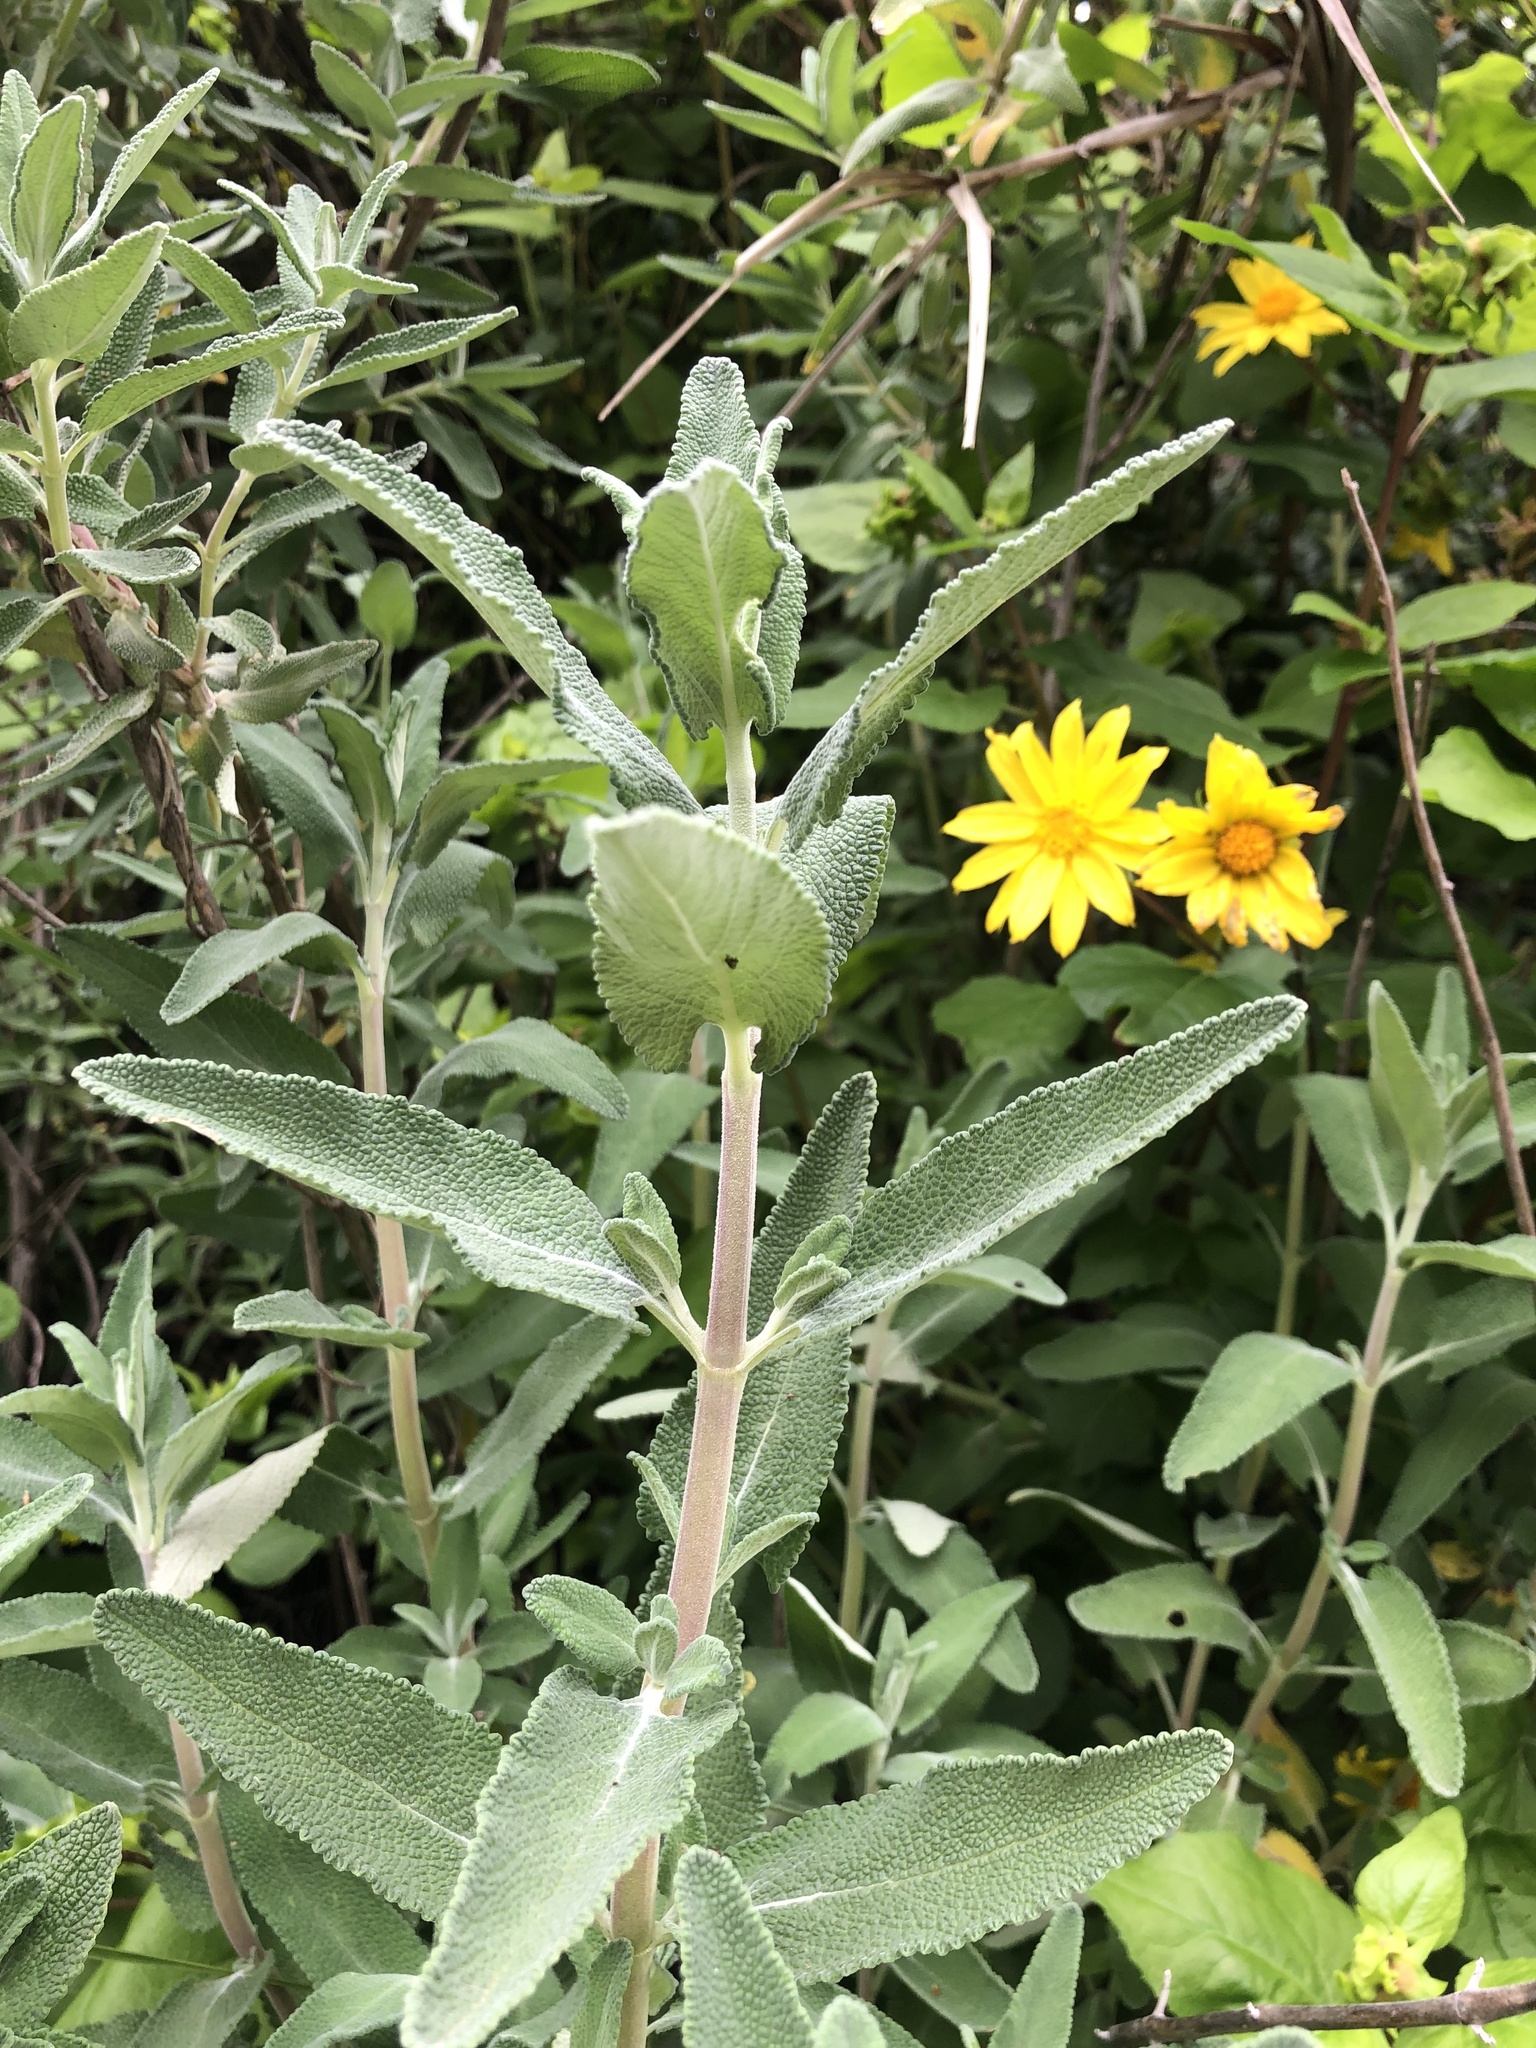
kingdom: Plantae
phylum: Tracheophyta
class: Magnoliopsida
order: Lamiales
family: Lamiaceae
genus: Salvia
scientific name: Salvia leucophylla
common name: Purple sage
